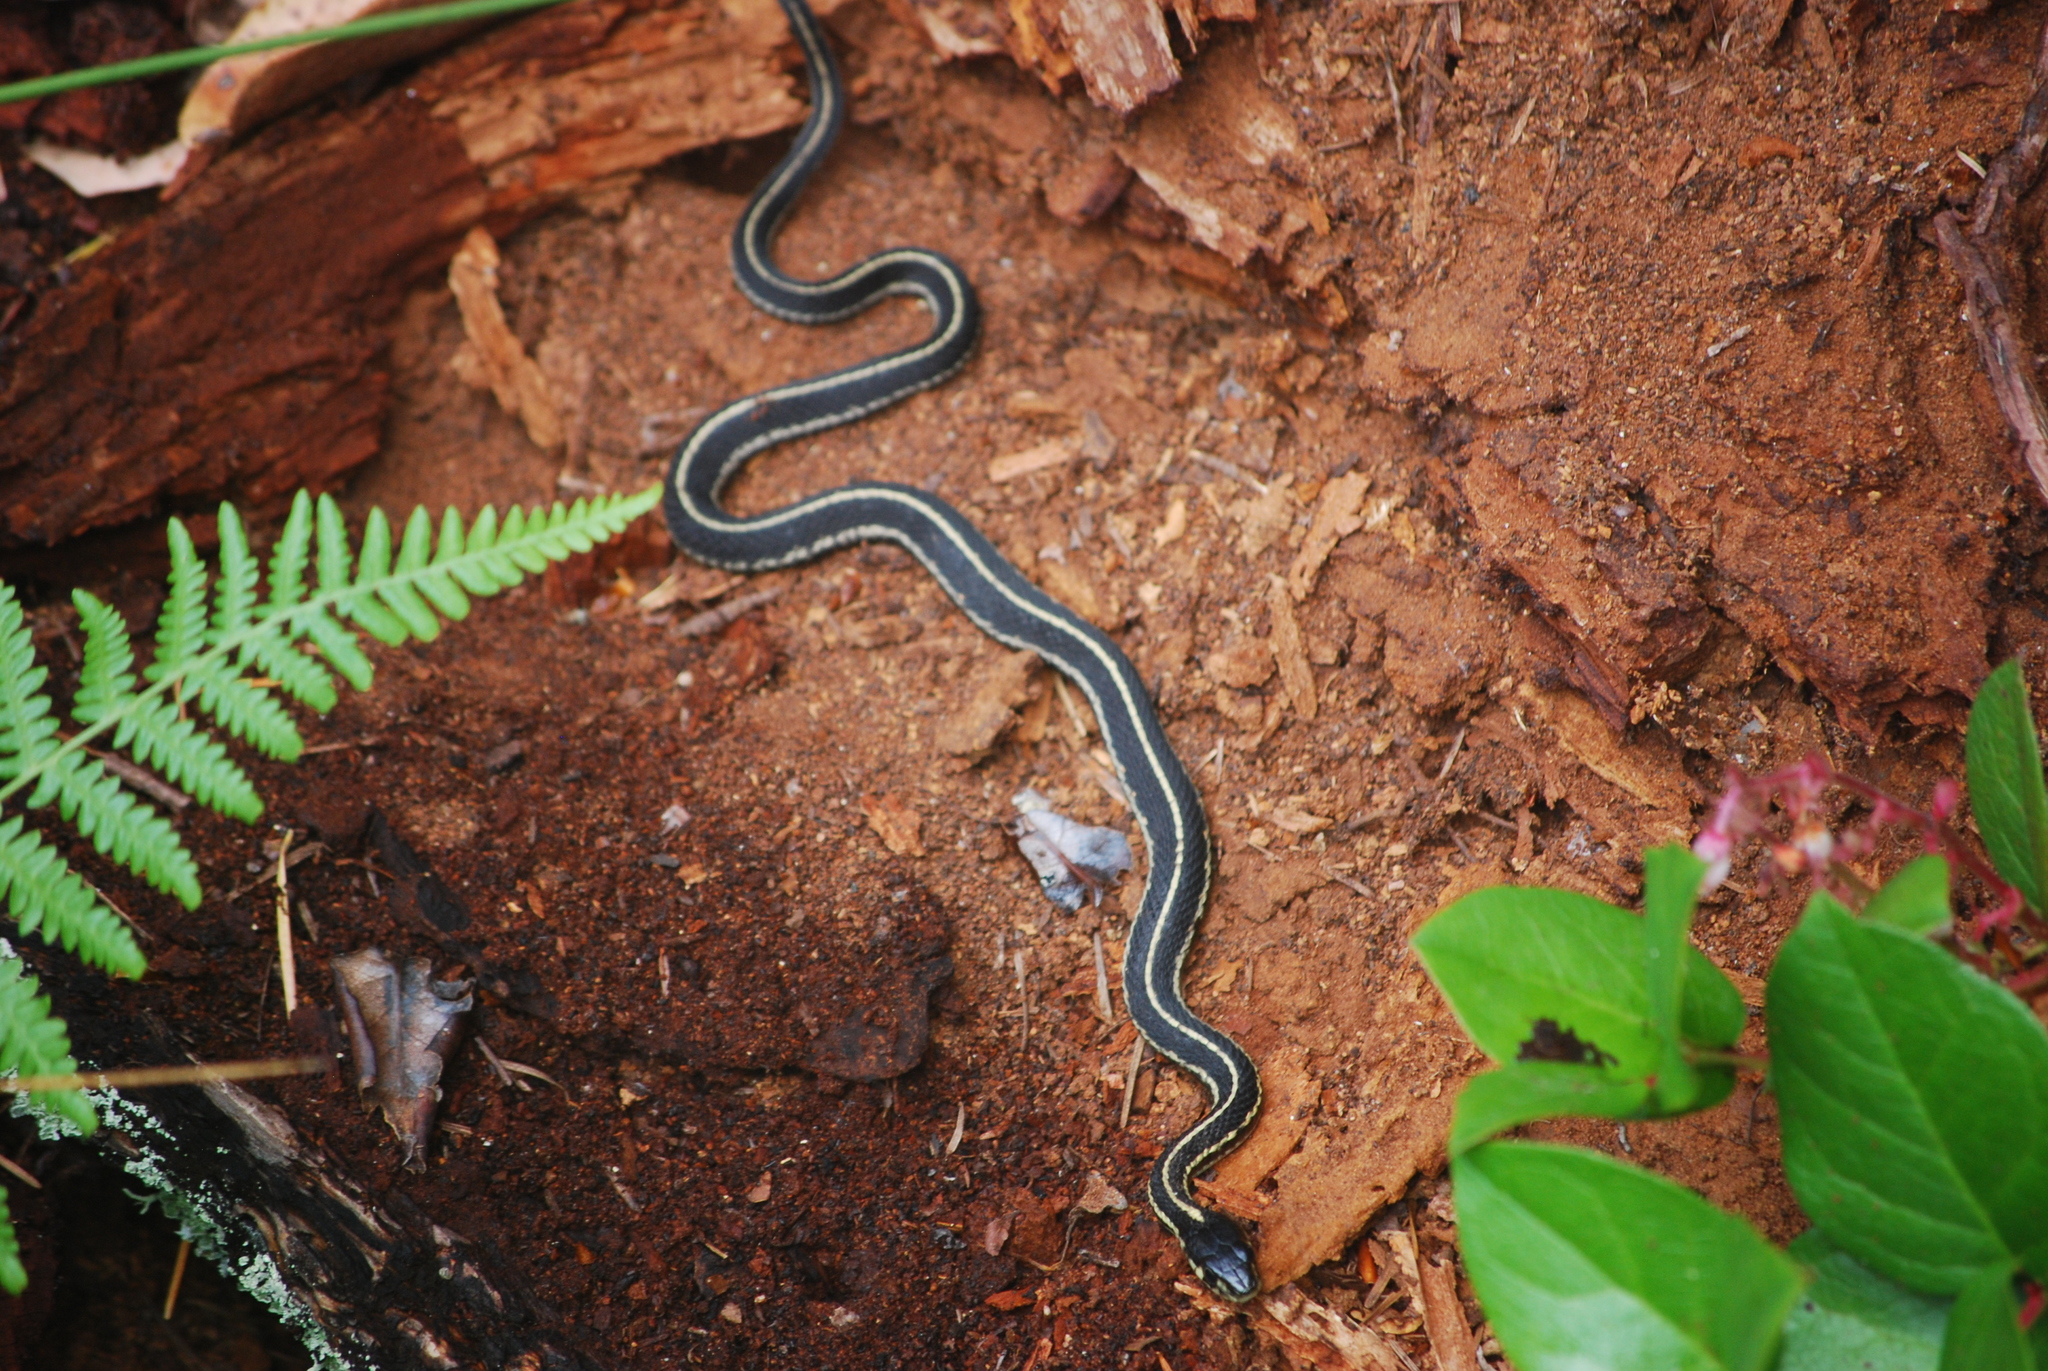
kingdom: Animalia
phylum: Chordata
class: Squamata
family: Colubridae
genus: Thamnophis
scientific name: Thamnophis sirtalis
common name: Common garter snake
